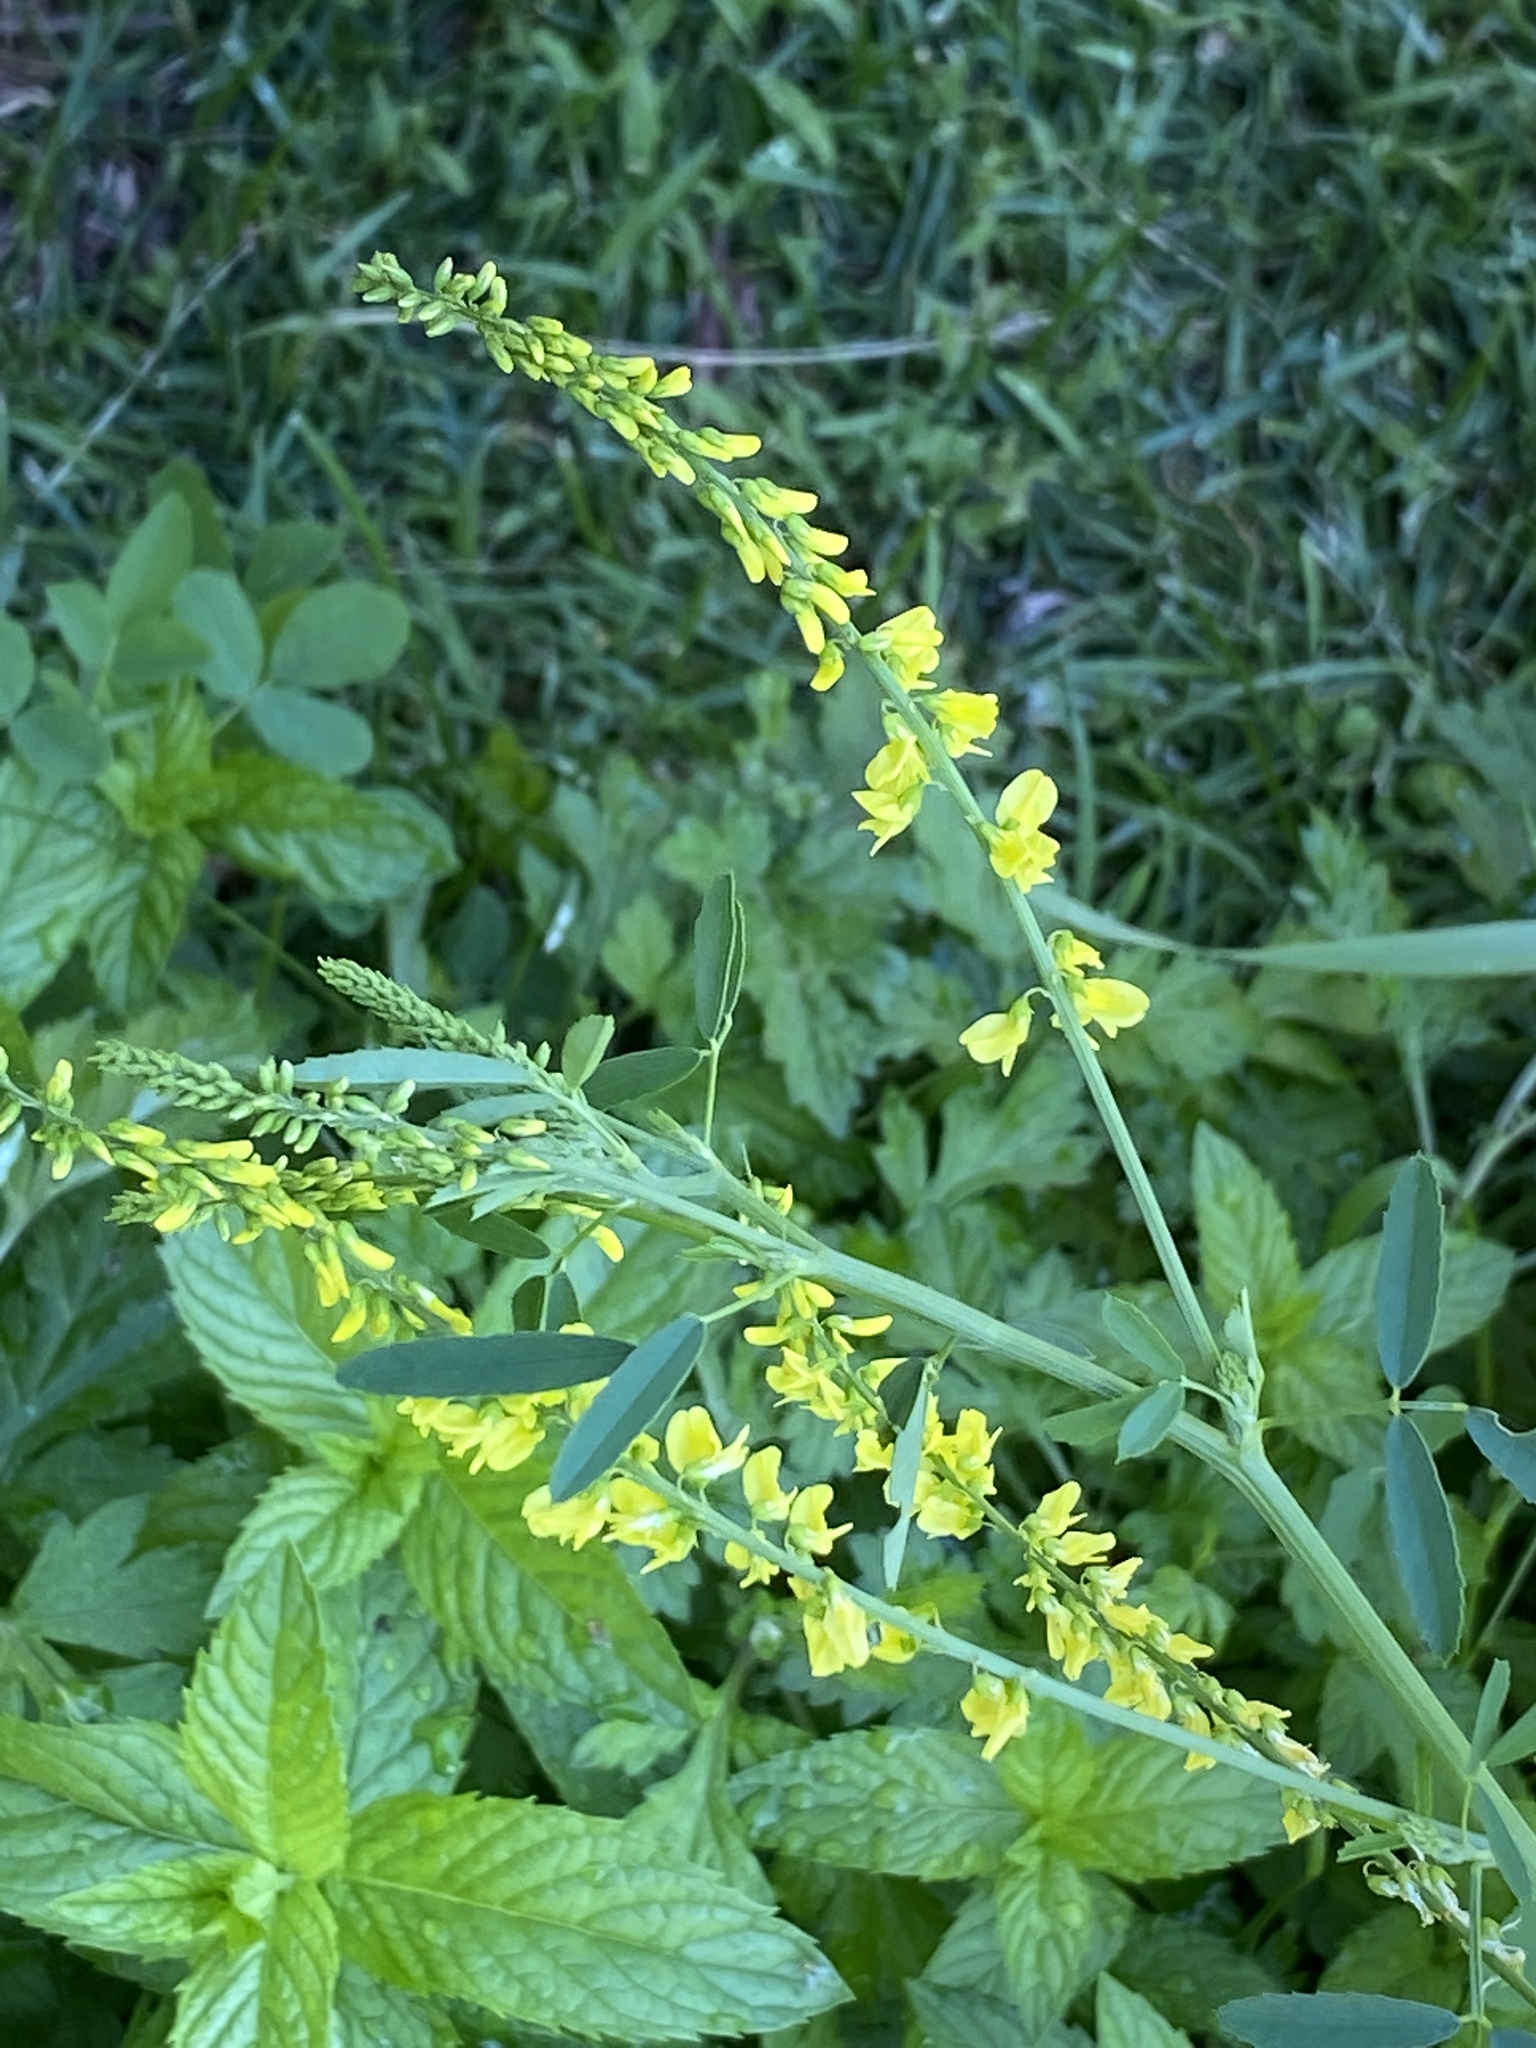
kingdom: Plantae
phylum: Tracheophyta
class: Magnoliopsida
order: Fabales
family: Fabaceae
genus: Melilotus
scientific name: Melilotus officinalis
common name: Sweetclover
